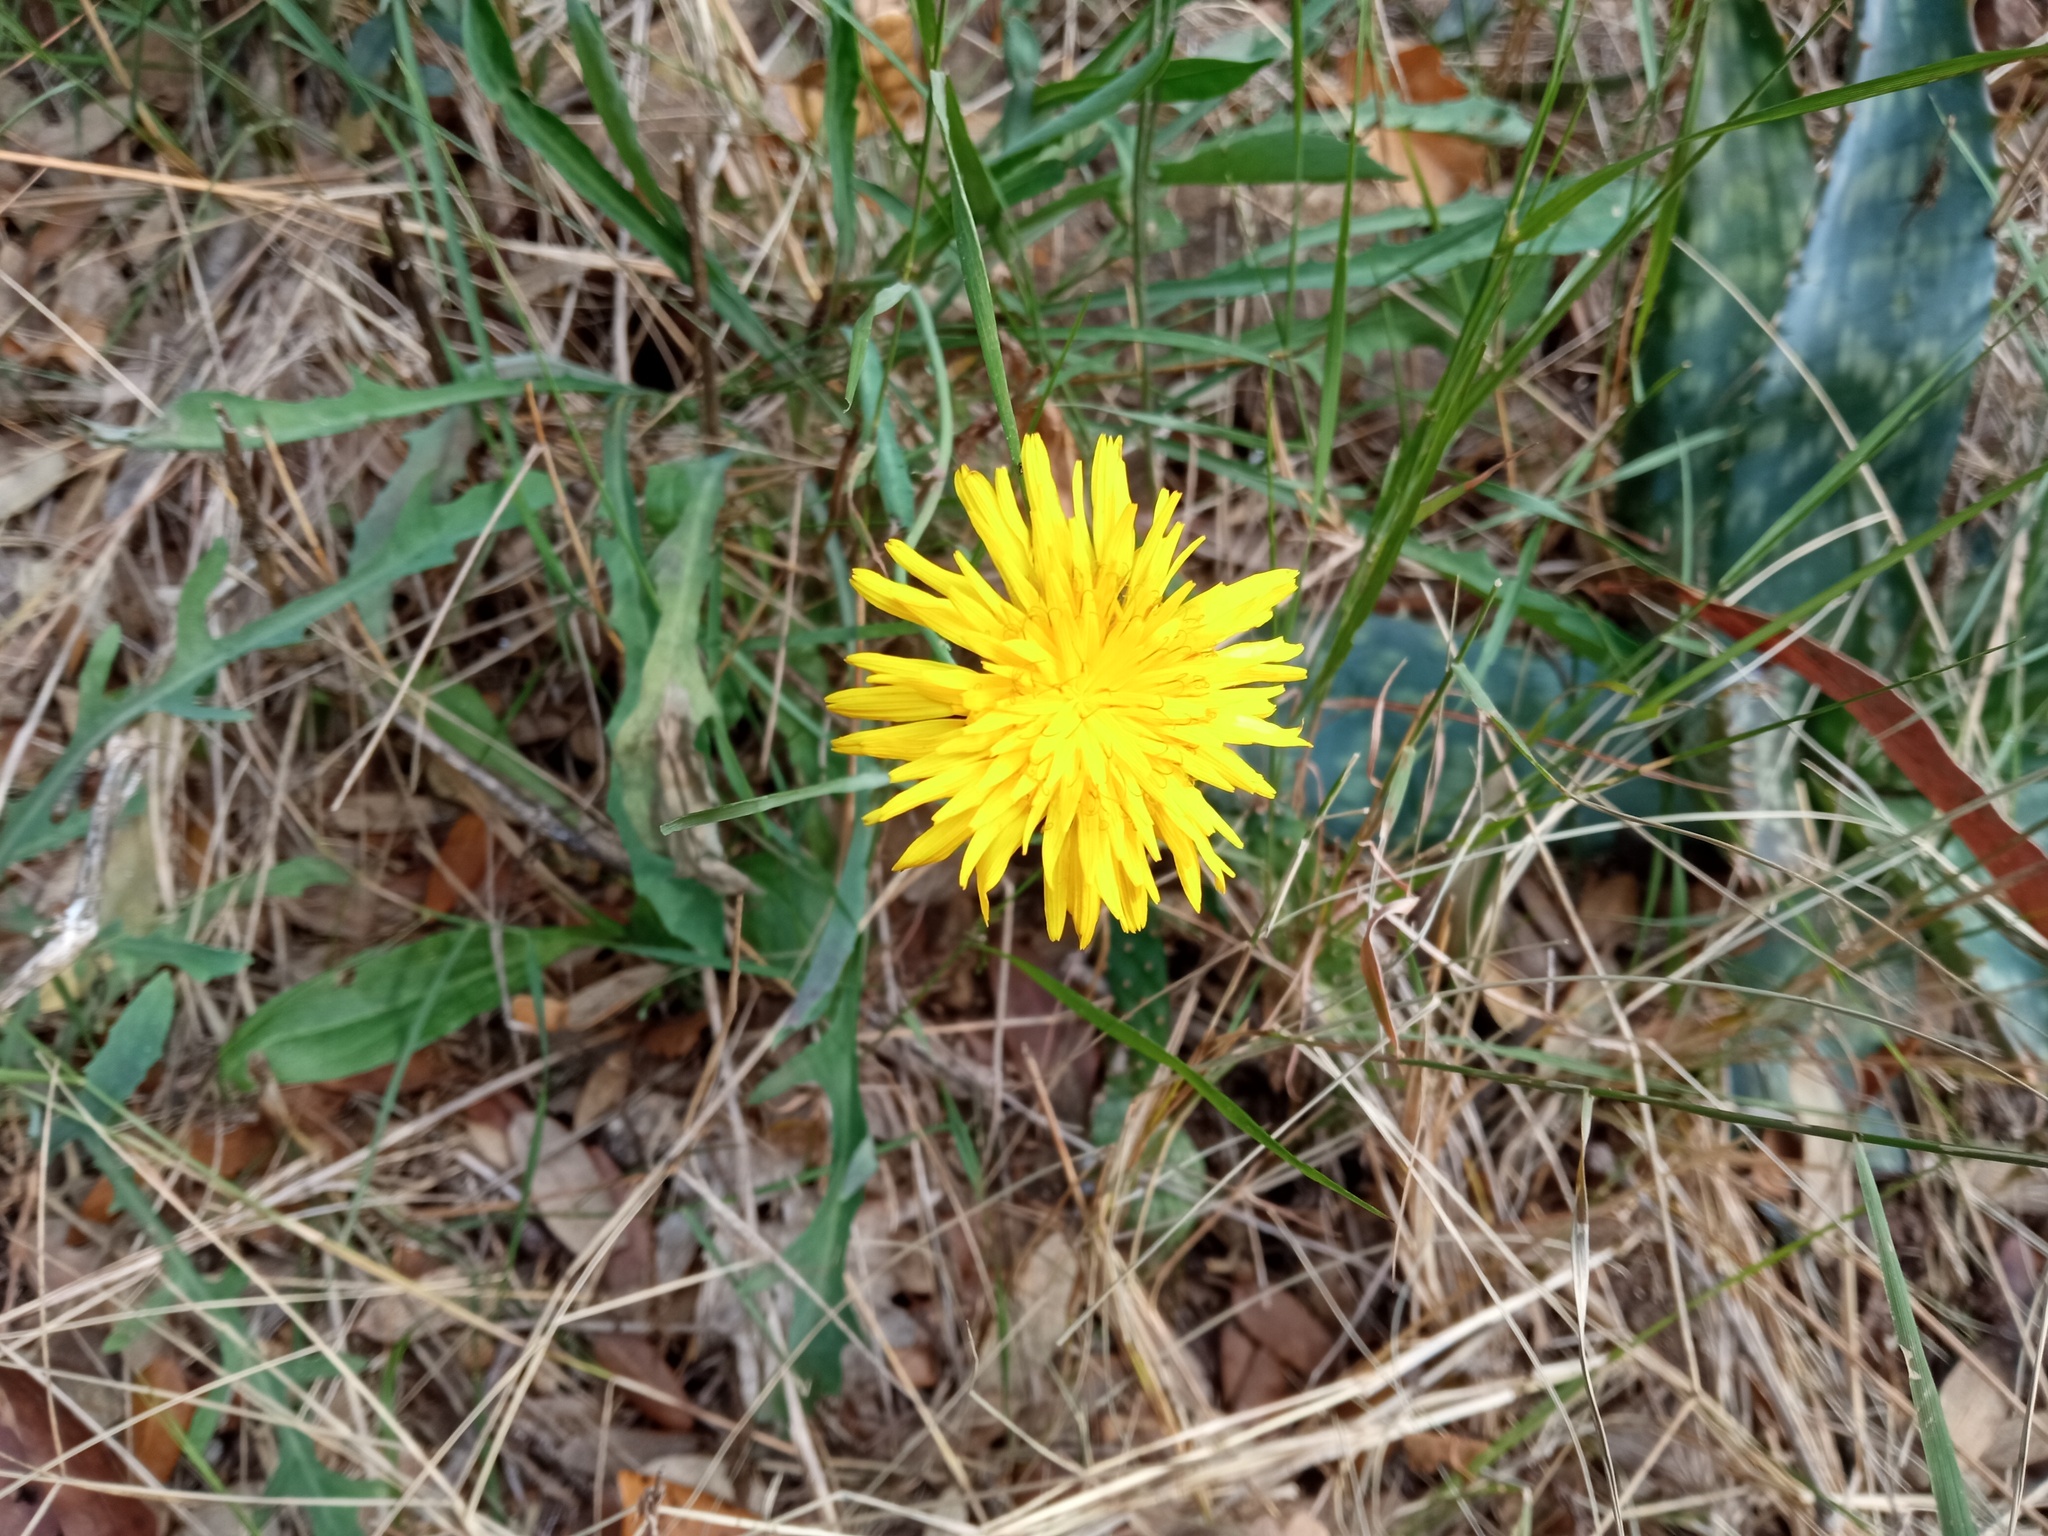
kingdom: Plantae
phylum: Tracheophyta
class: Magnoliopsida
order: Asterales
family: Asteraceae
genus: Reichardia
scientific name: Reichardia picroides
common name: Common brighteyes
